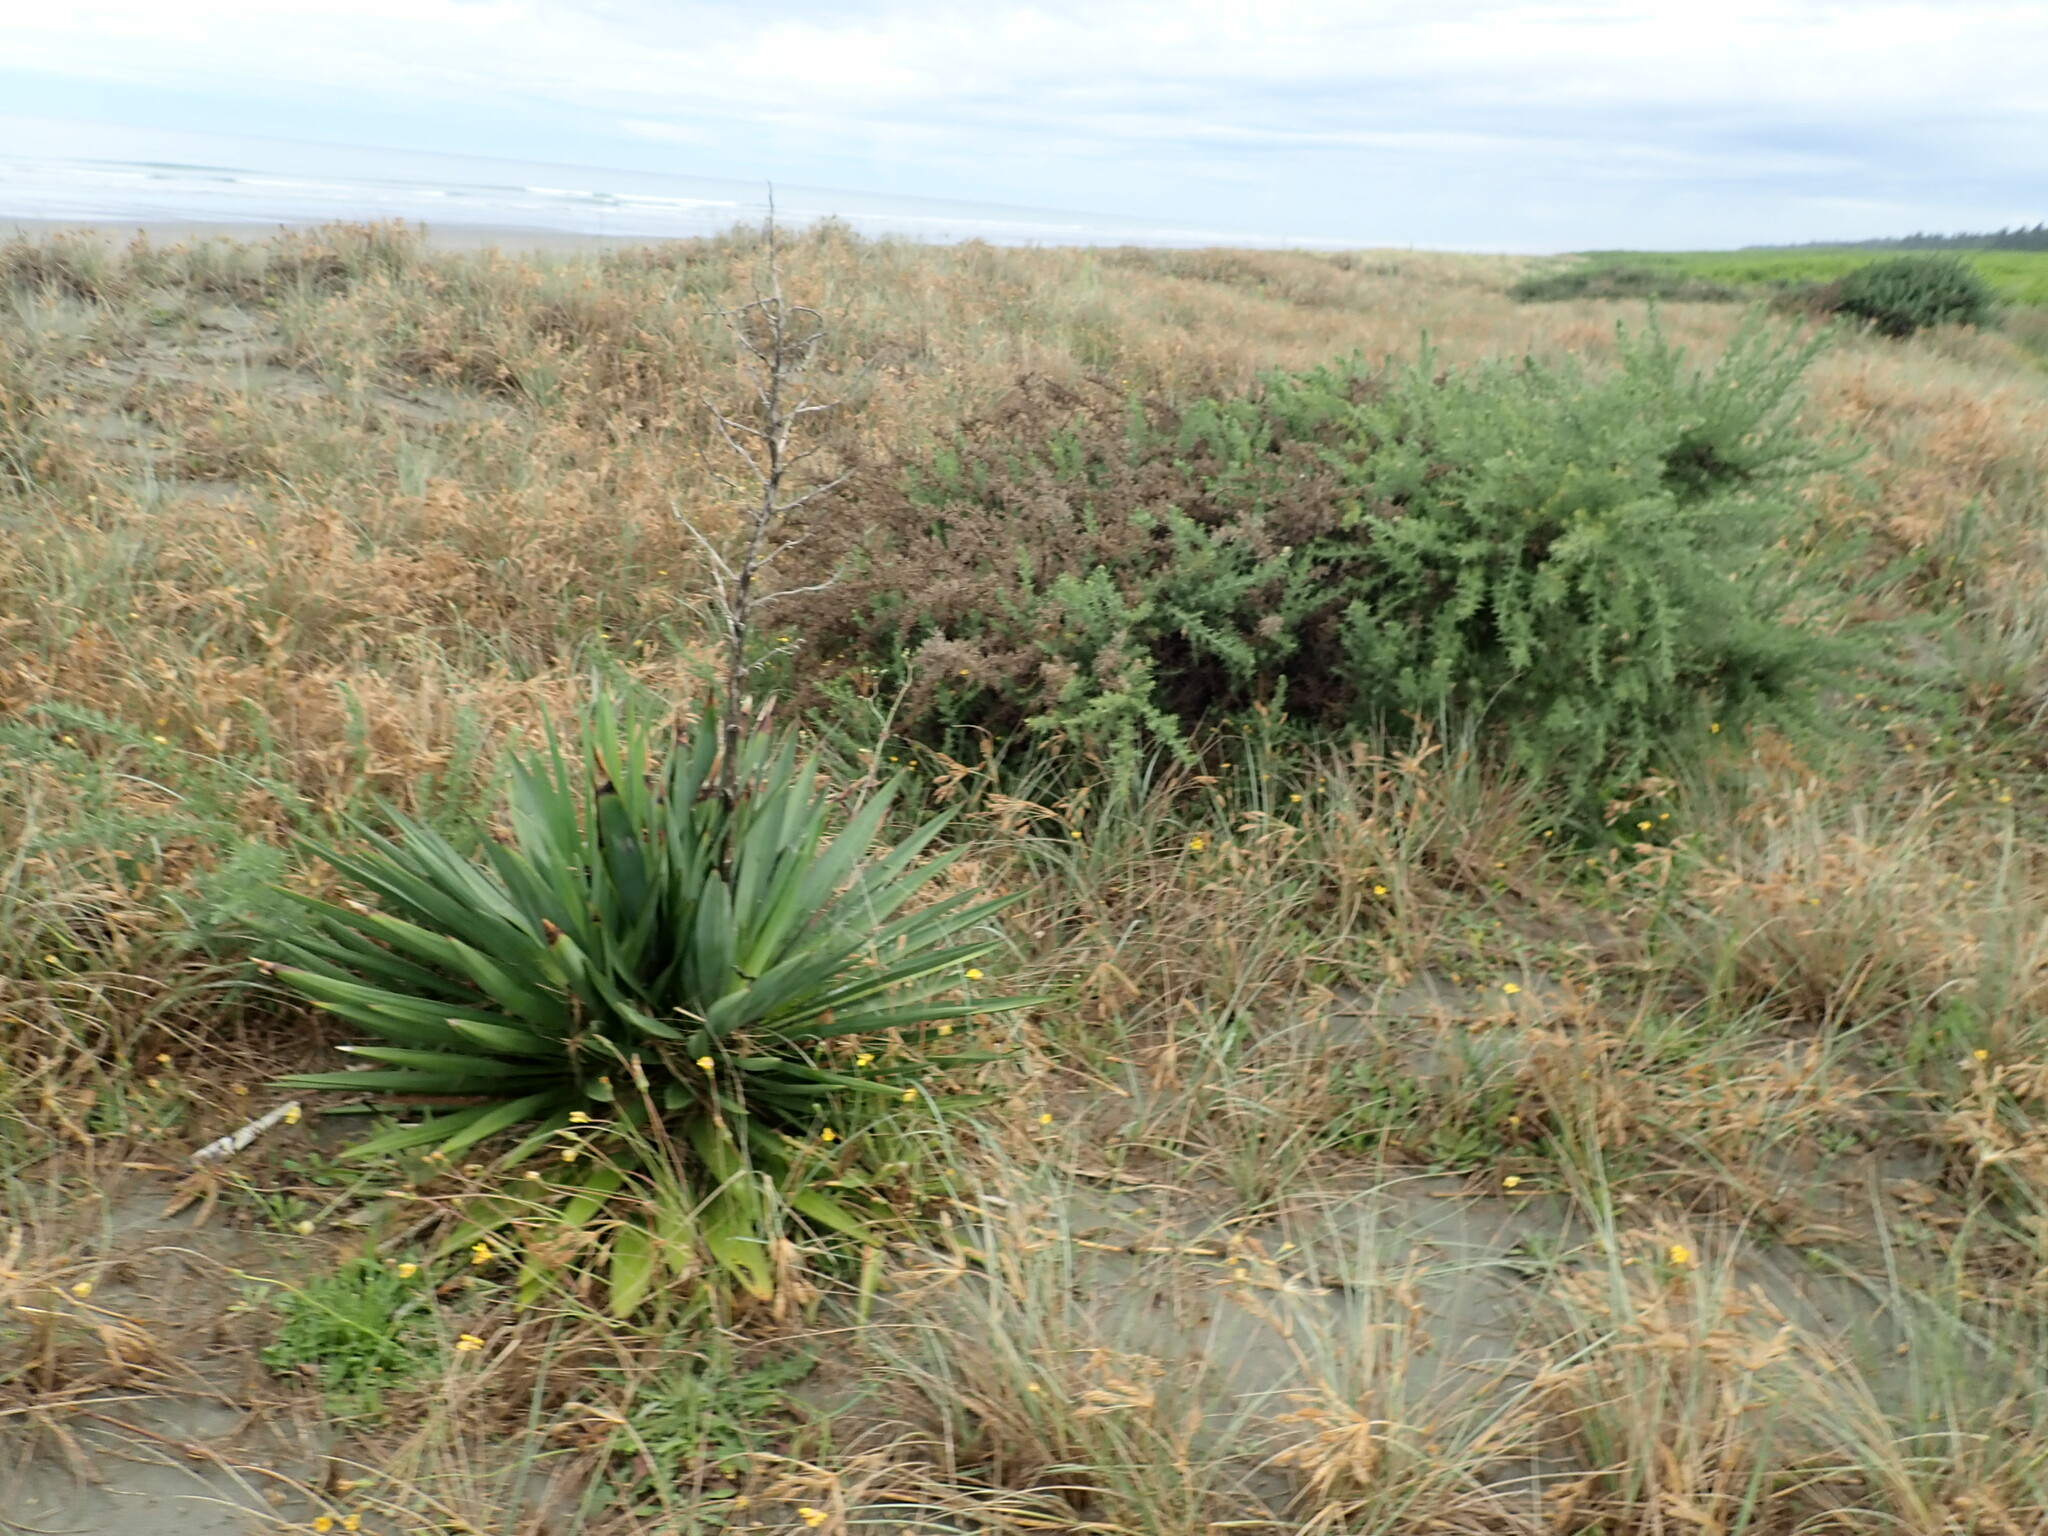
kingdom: Plantae
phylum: Tracheophyta
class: Liliopsida
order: Asparagales
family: Asparagaceae
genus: Yucca
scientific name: Yucca gloriosa
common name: Spanish-dagger
